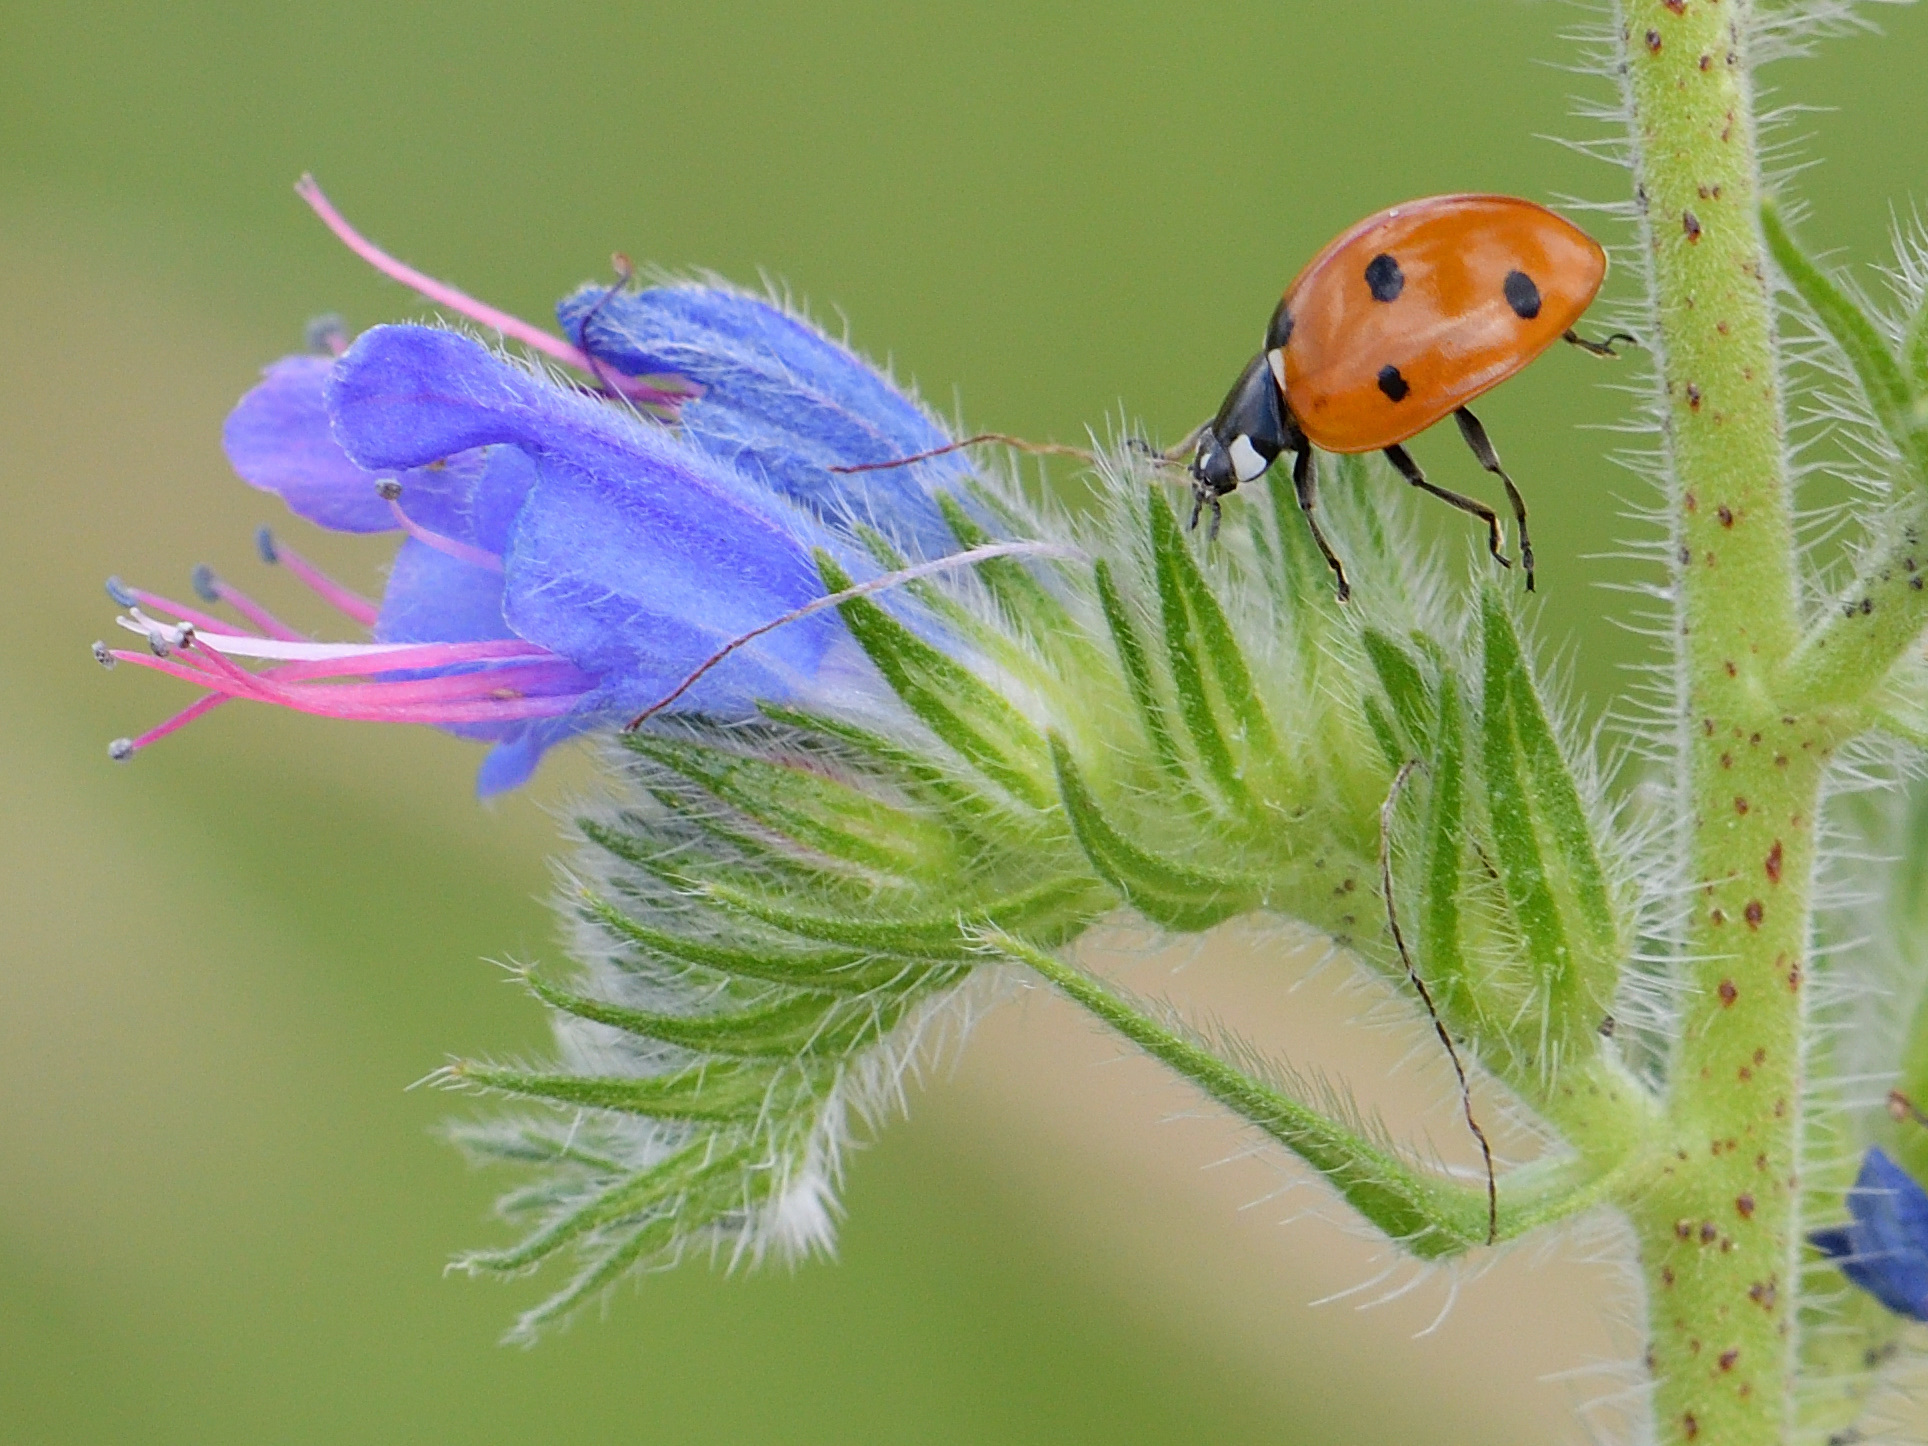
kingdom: Plantae
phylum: Tracheophyta
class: Magnoliopsida
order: Boraginales
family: Boraginaceae
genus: Echium
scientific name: Echium vulgare
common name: Common viper's bugloss
